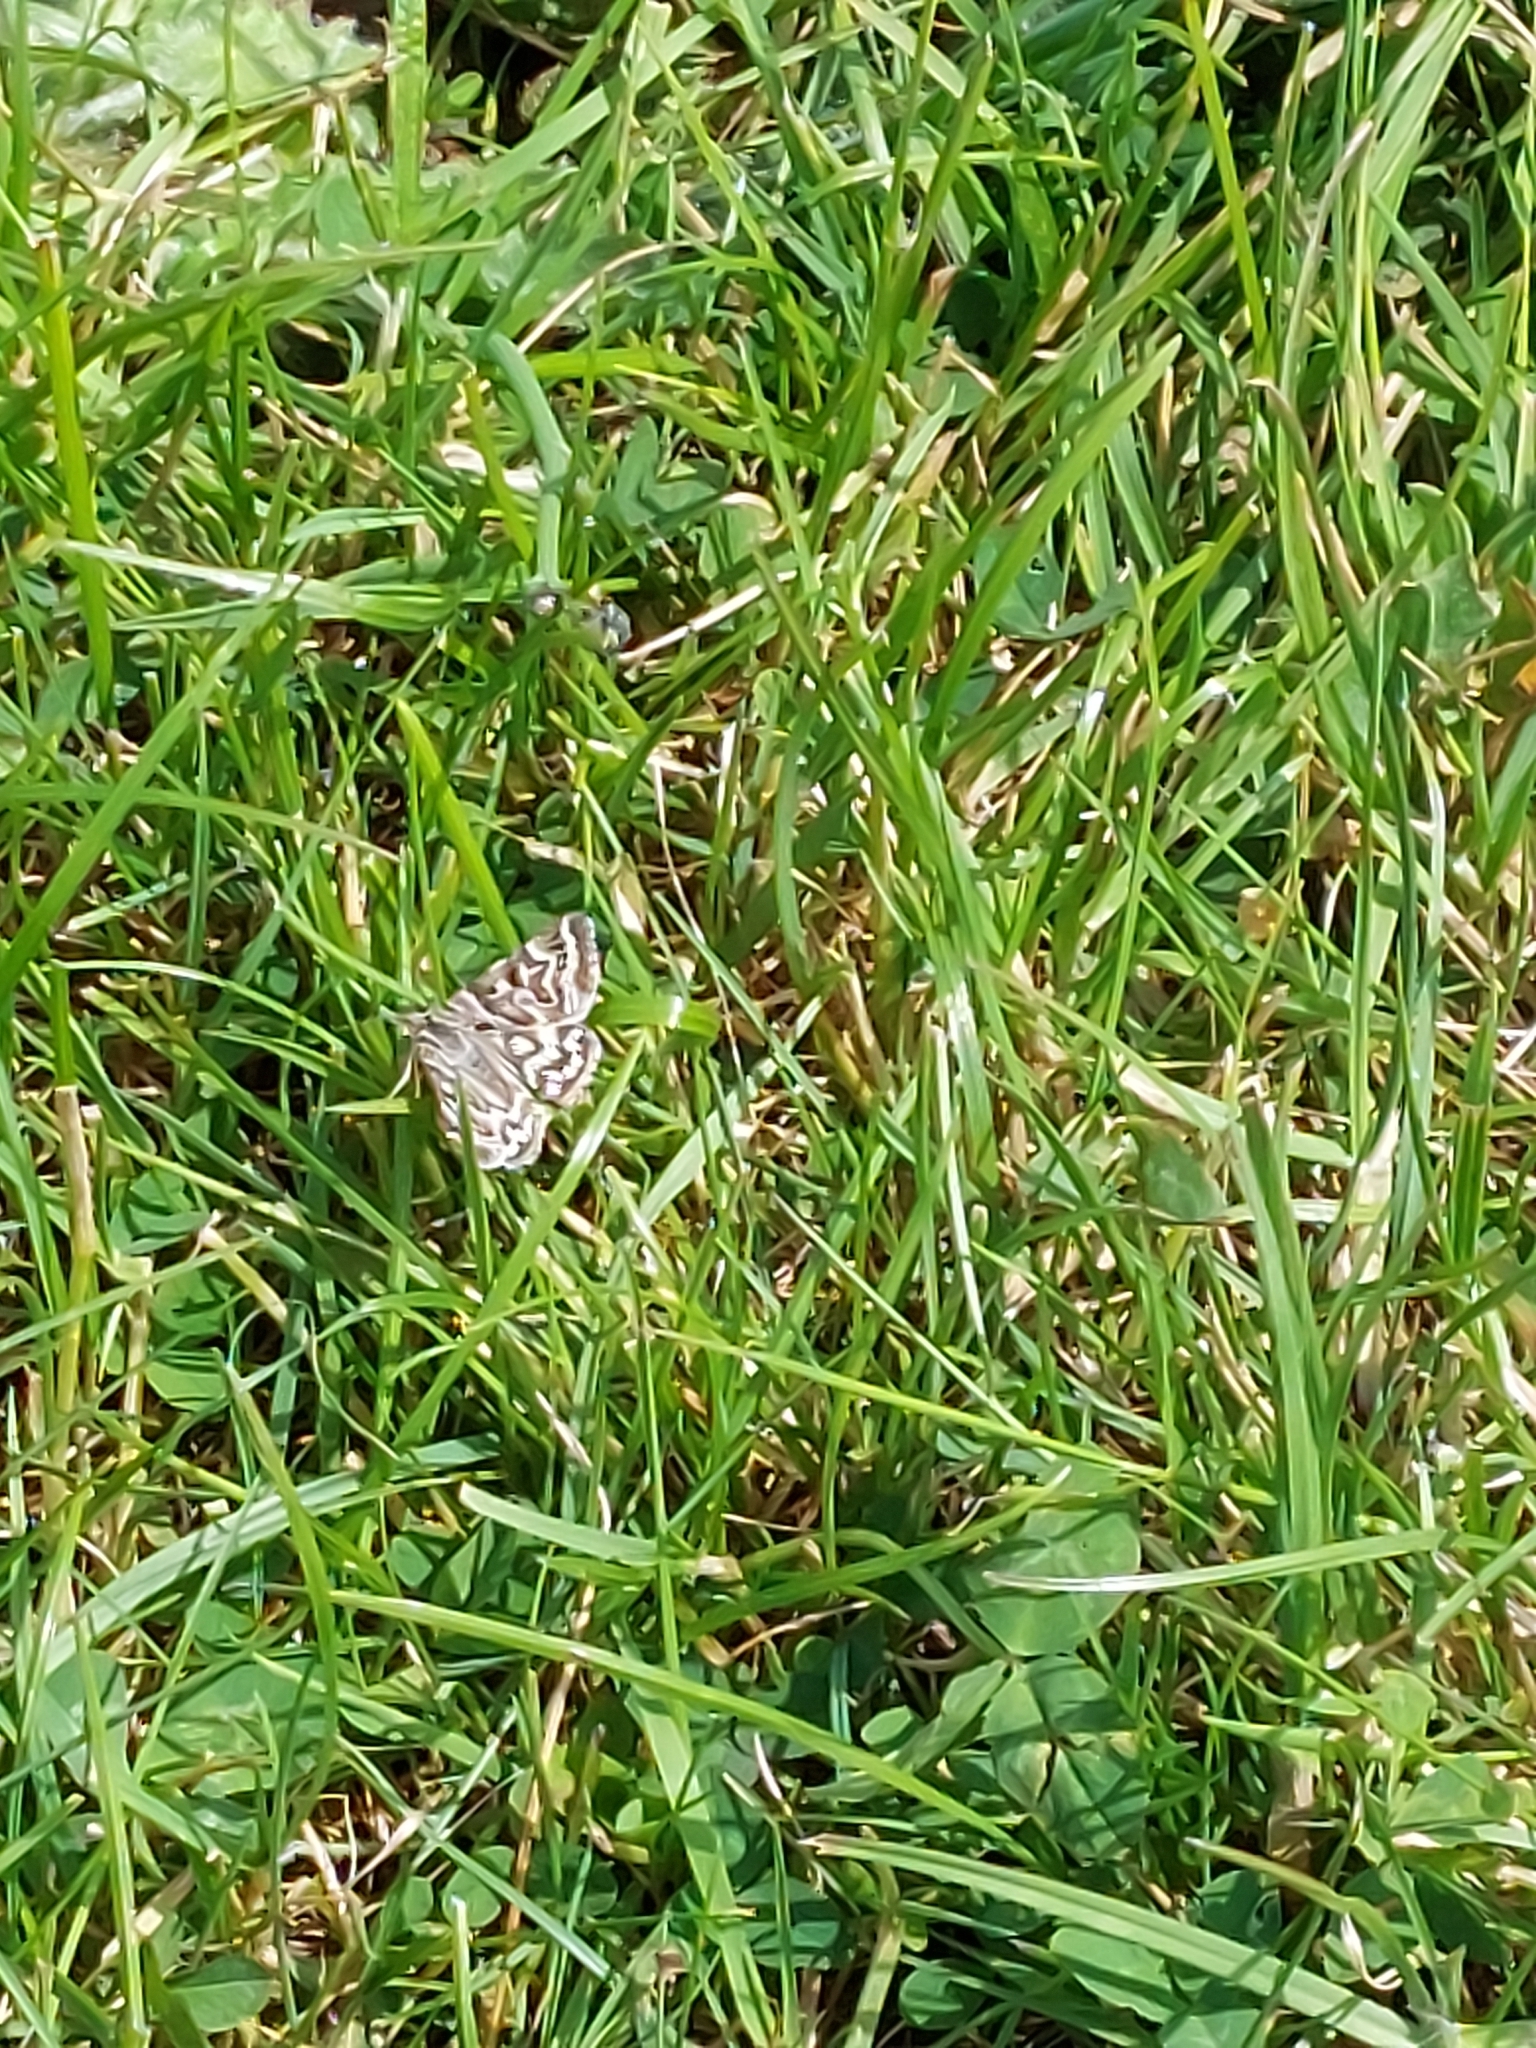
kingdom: Animalia
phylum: Arthropoda
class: Insecta
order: Lepidoptera
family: Erebidae
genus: Callistege
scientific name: Callistege mi
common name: Mother shipton
